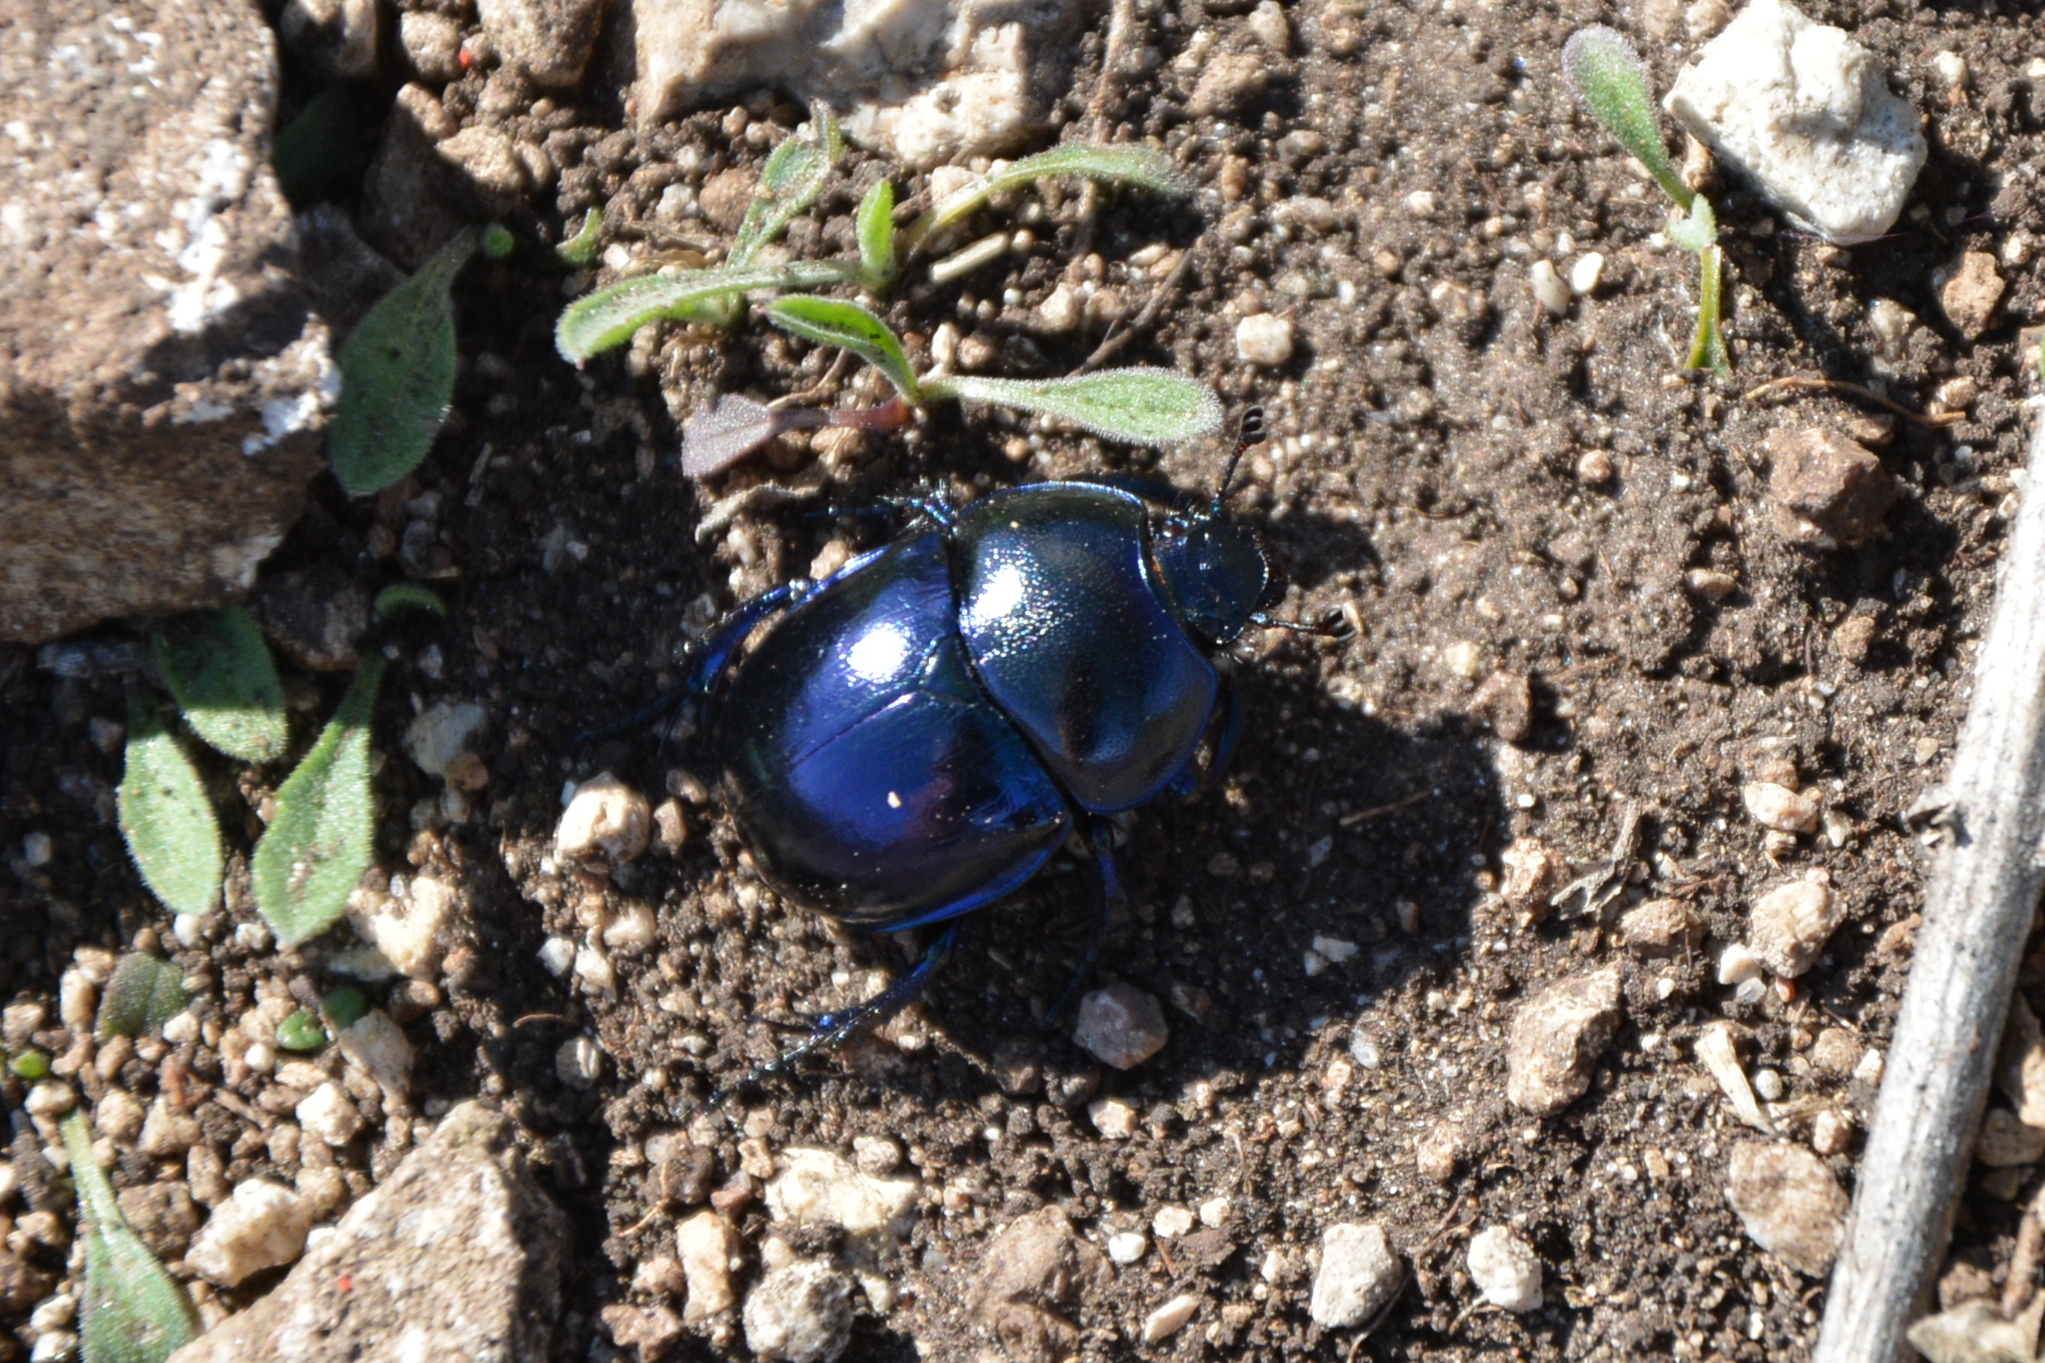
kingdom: Animalia
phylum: Arthropoda
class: Insecta
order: Coleoptera
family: Geotrupidae
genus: Trypocopris
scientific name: Trypocopris vernalis
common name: Spring dumbledor
